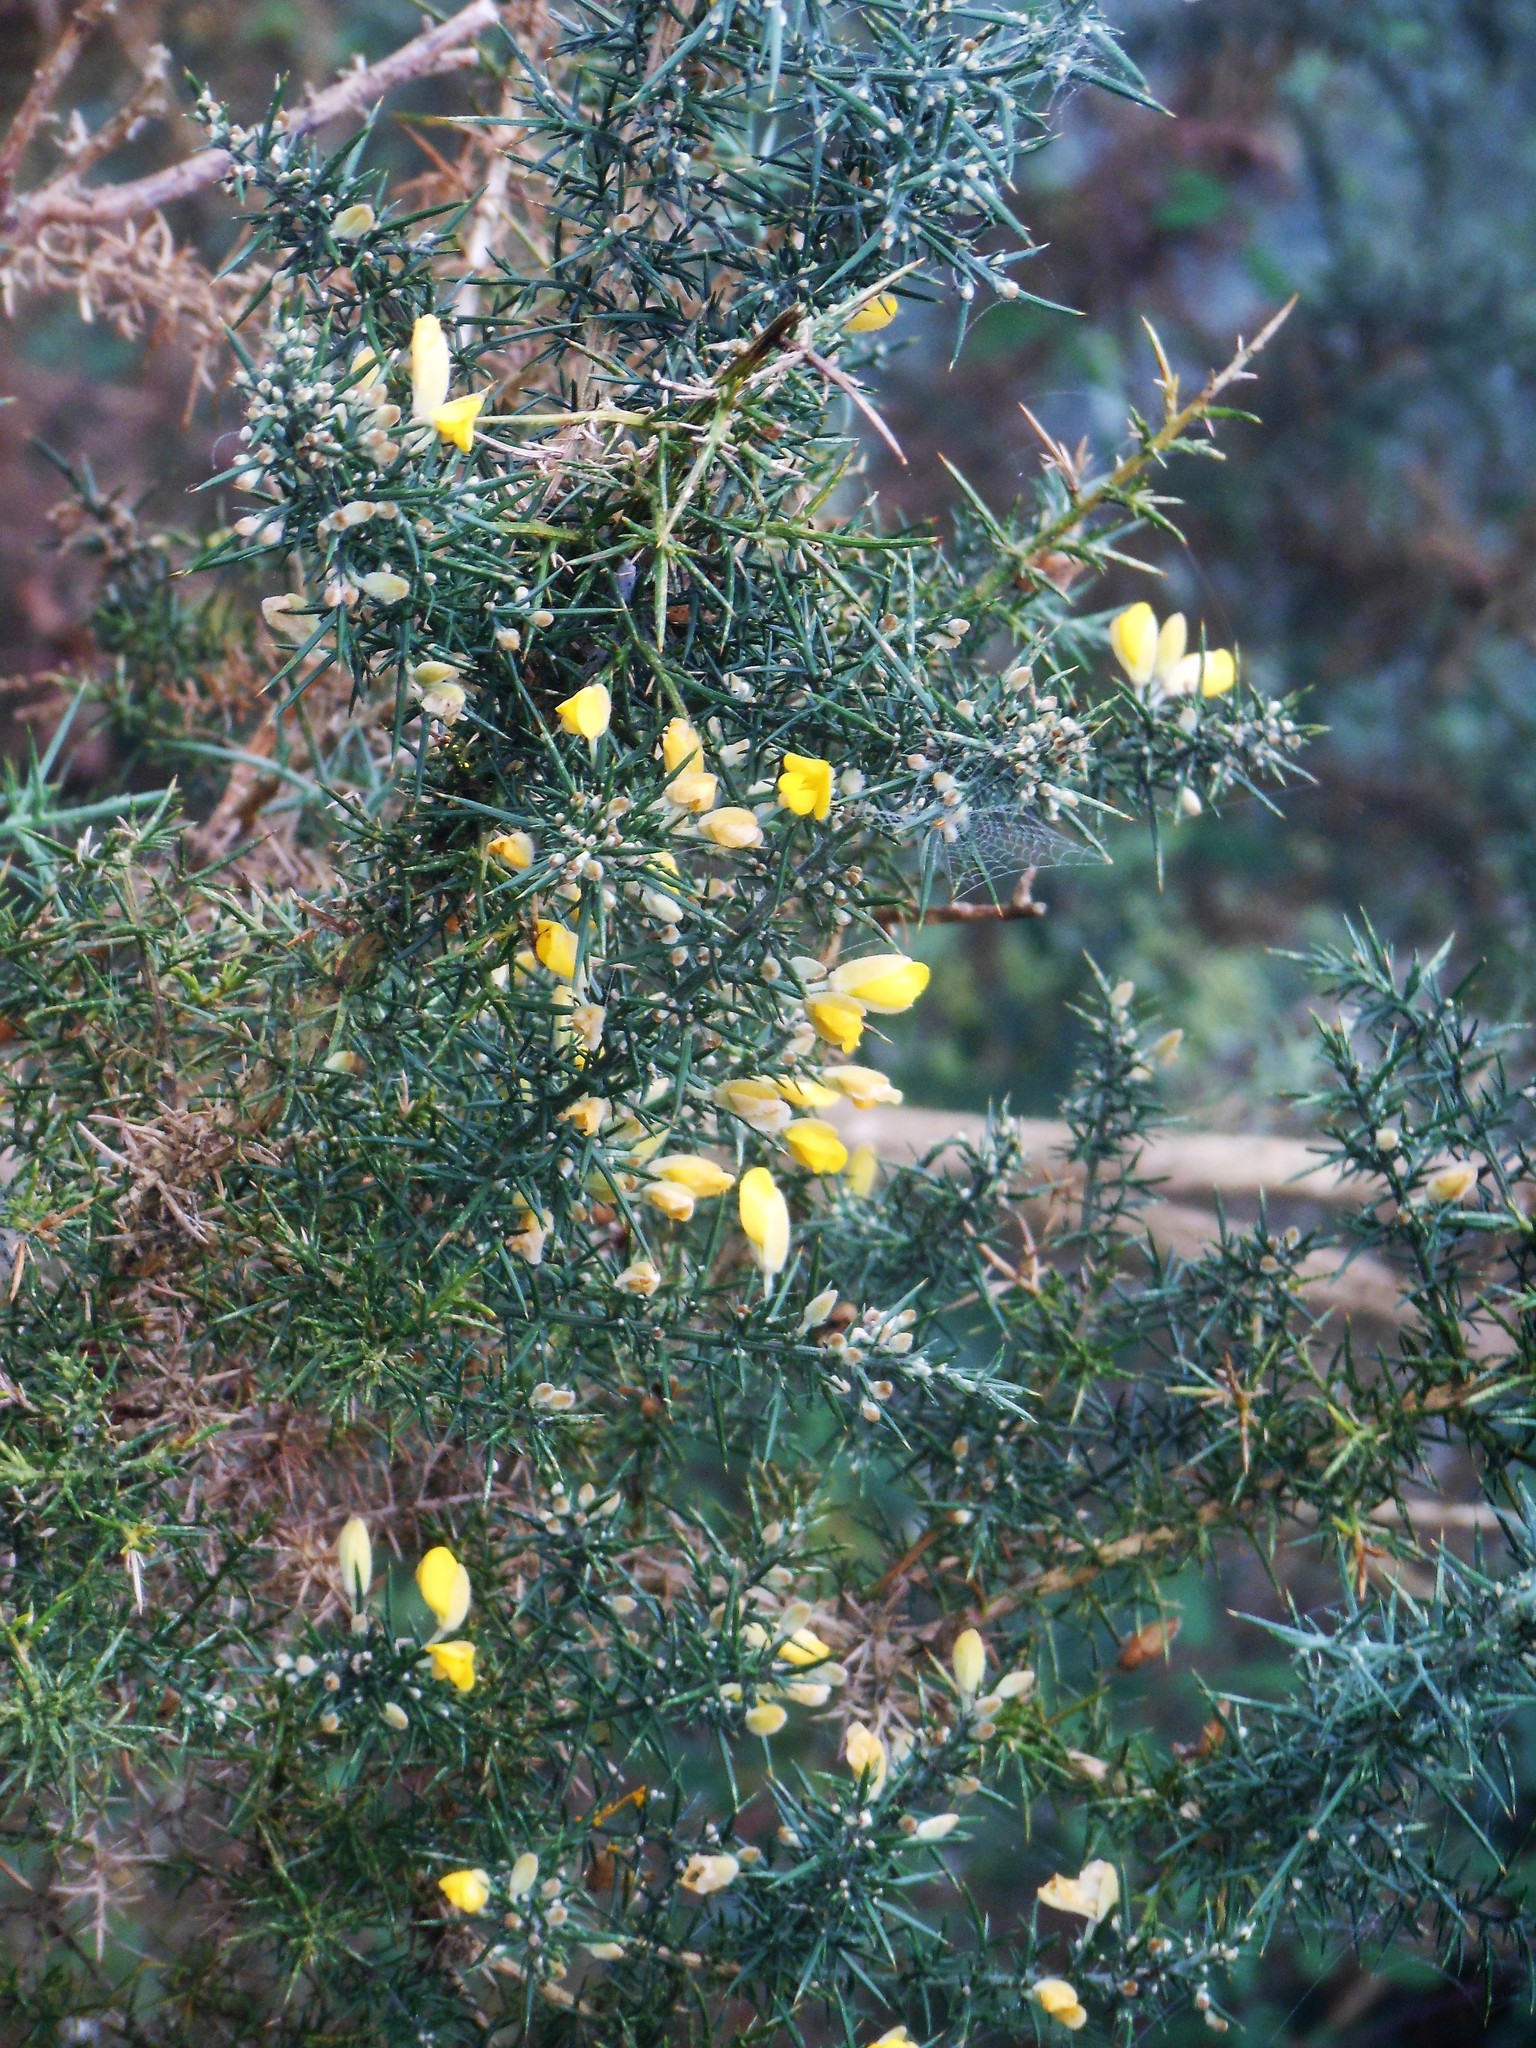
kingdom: Plantae
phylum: Tracheophyta
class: Magnoliopsida
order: Fabales
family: Fabaceae
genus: Ulex
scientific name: Ulex europaeus
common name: Common gorse
